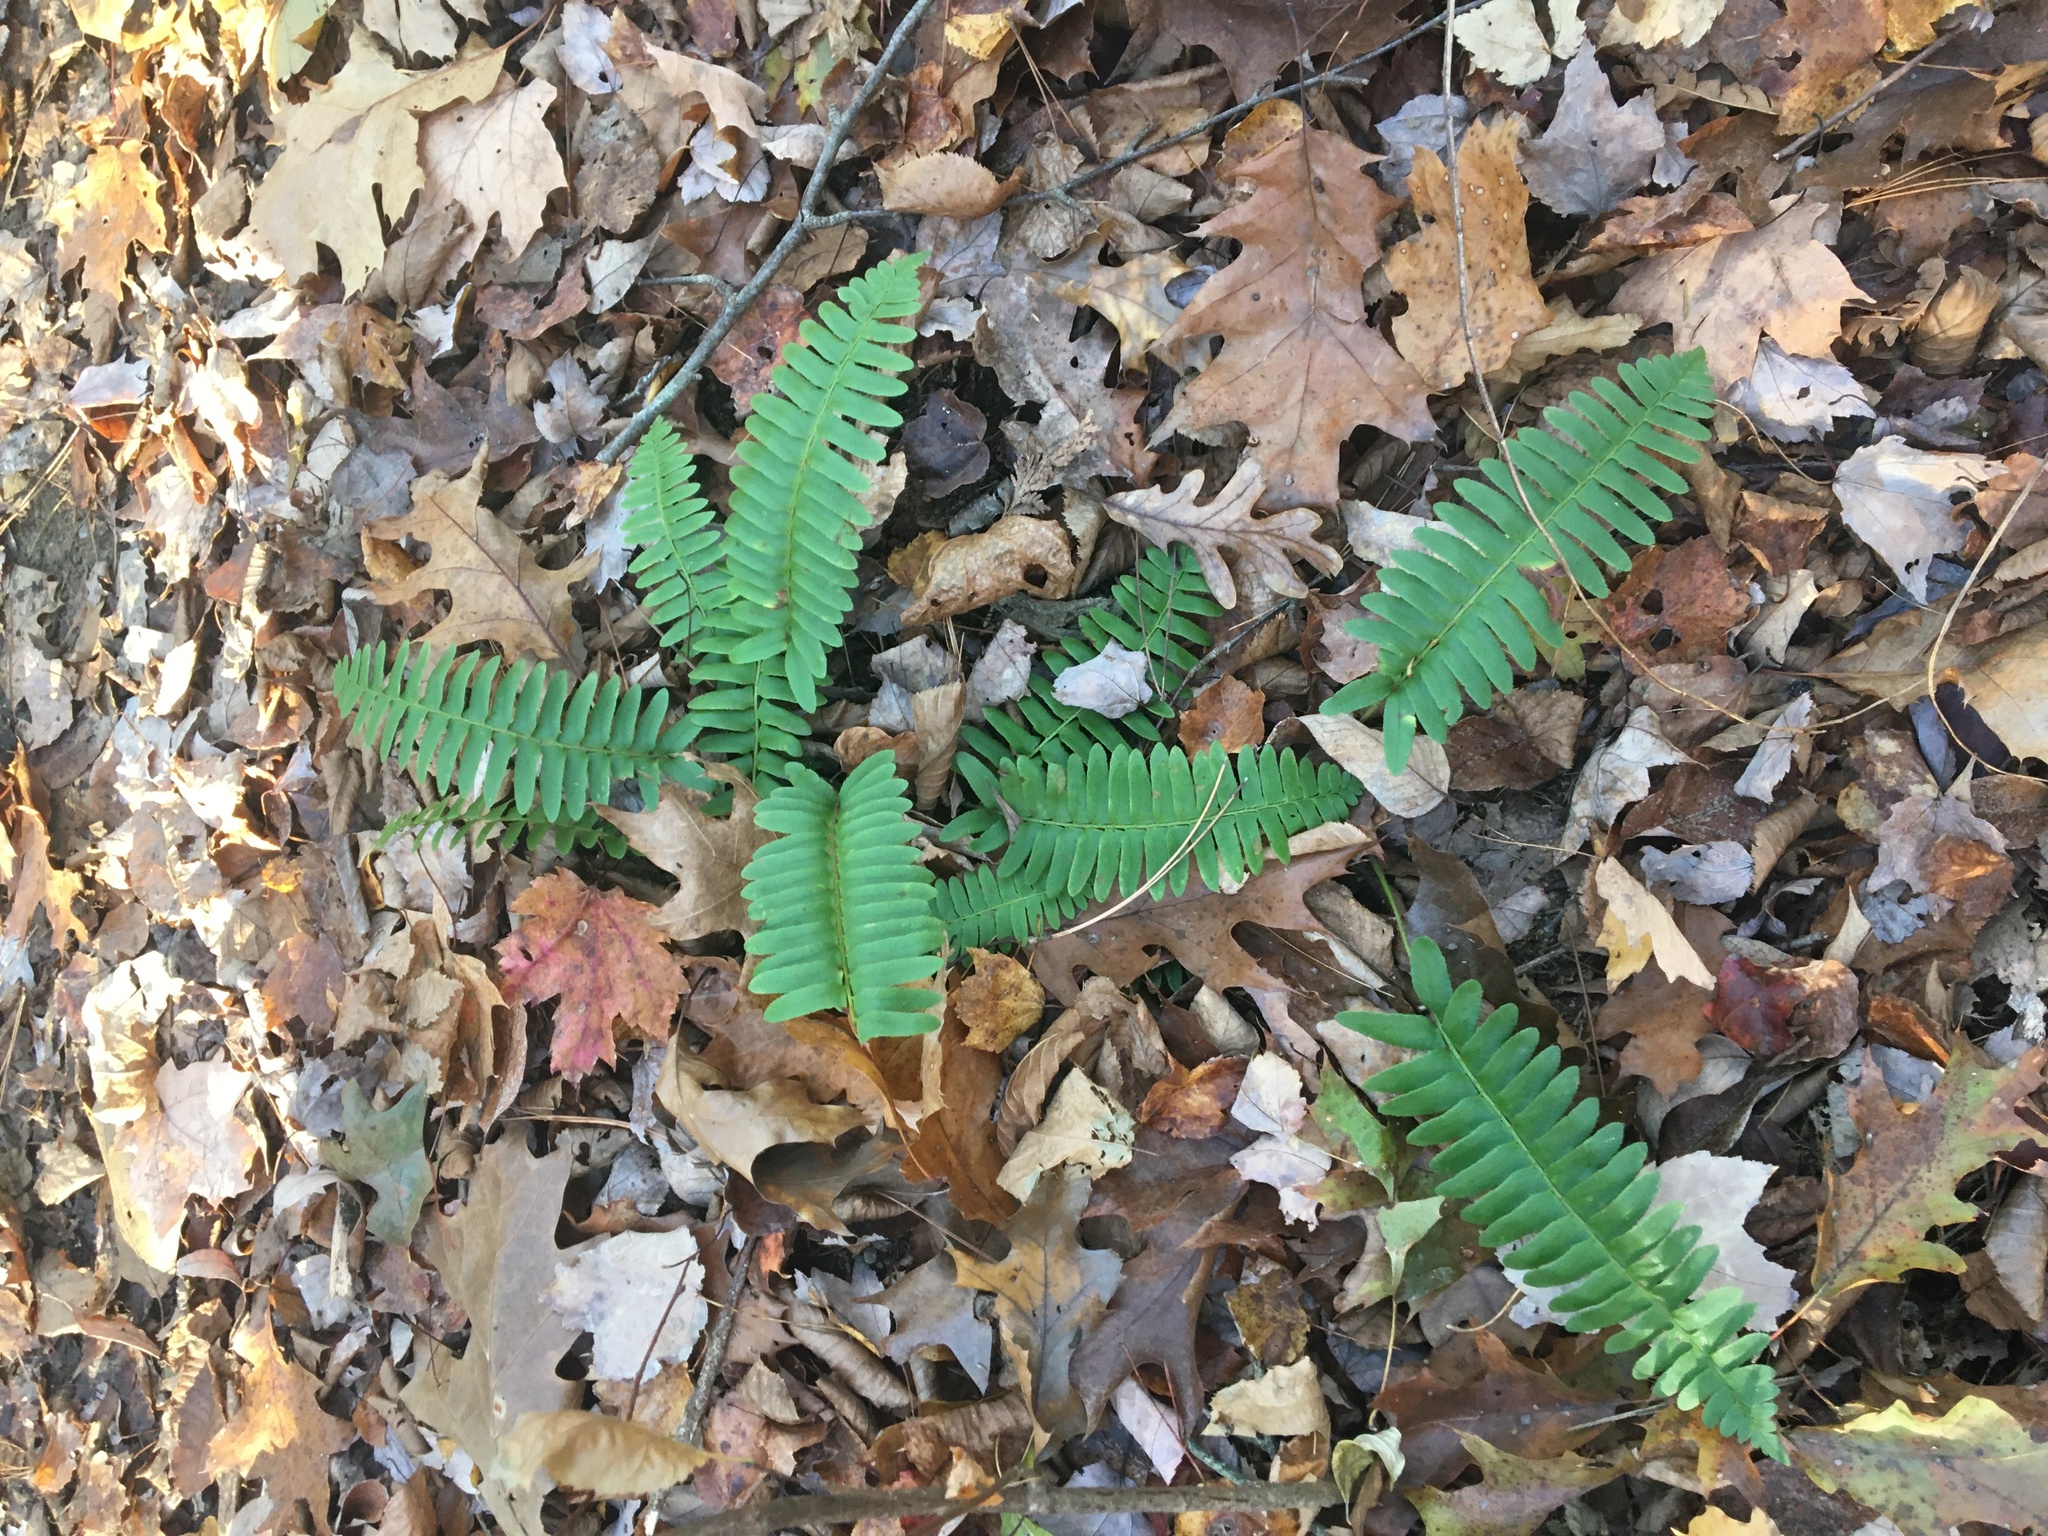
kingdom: Plantae
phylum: Tracheophyta
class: Polypodiopsida
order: Polypodiales
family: Dryopteridaceae
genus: Polystichum
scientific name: Polystichum acrostichoides
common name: Christmas fern
